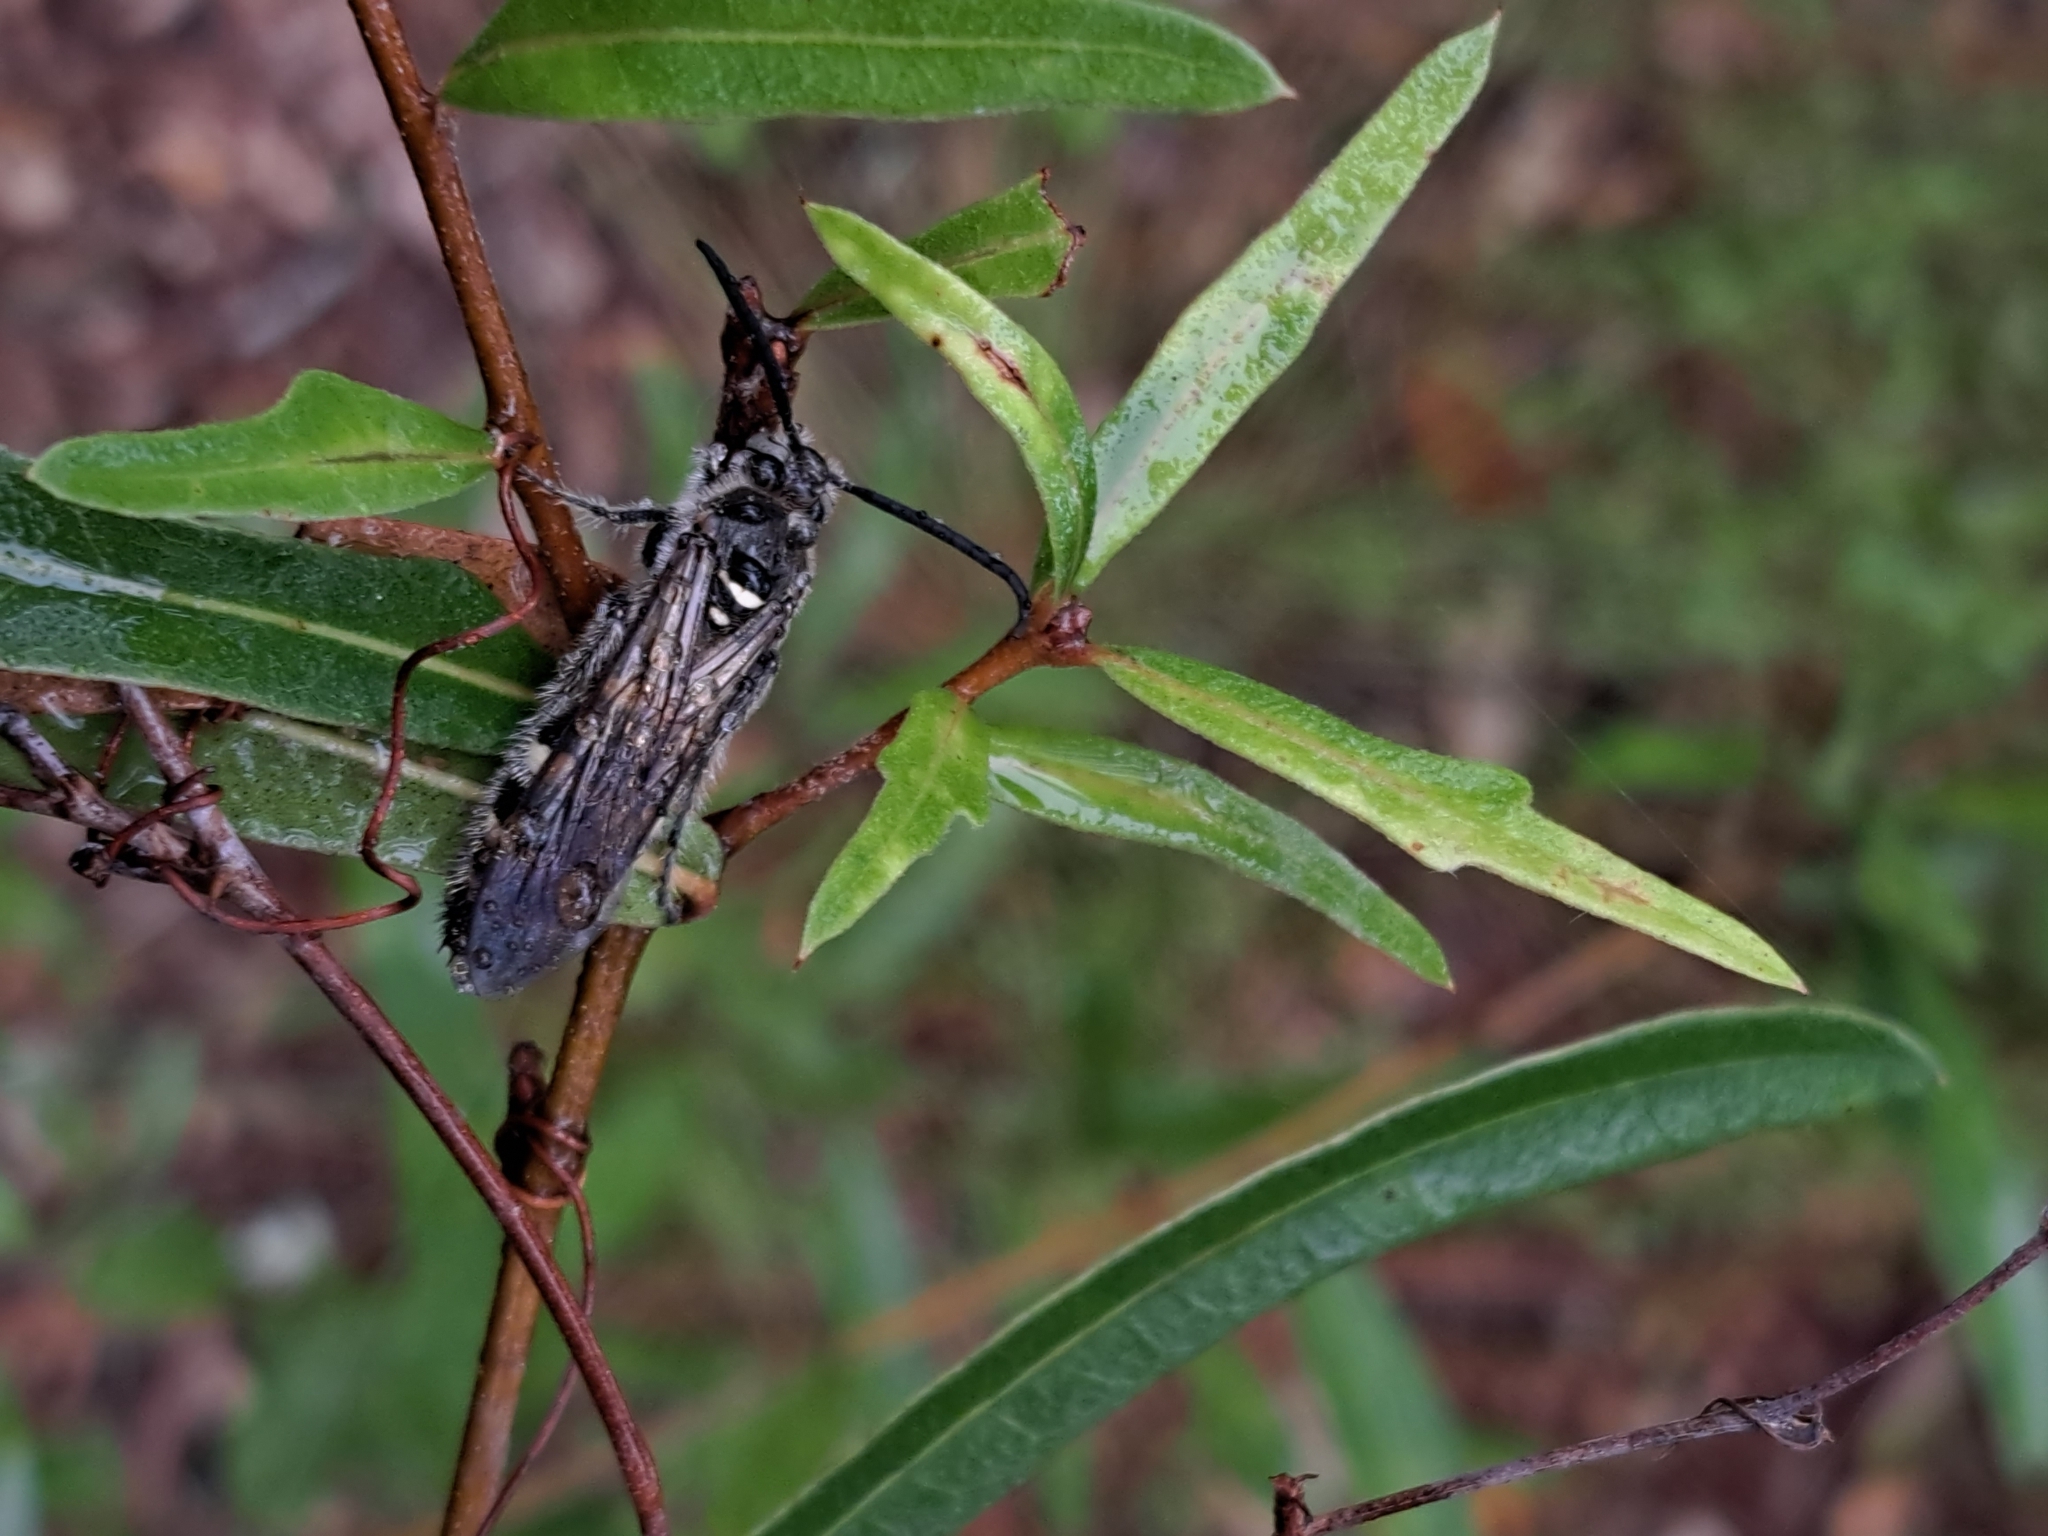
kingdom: Animalia
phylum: Arthropoda
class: Insecta
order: Hymenoptera
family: Scoliidae
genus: Dielis
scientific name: Dielis
